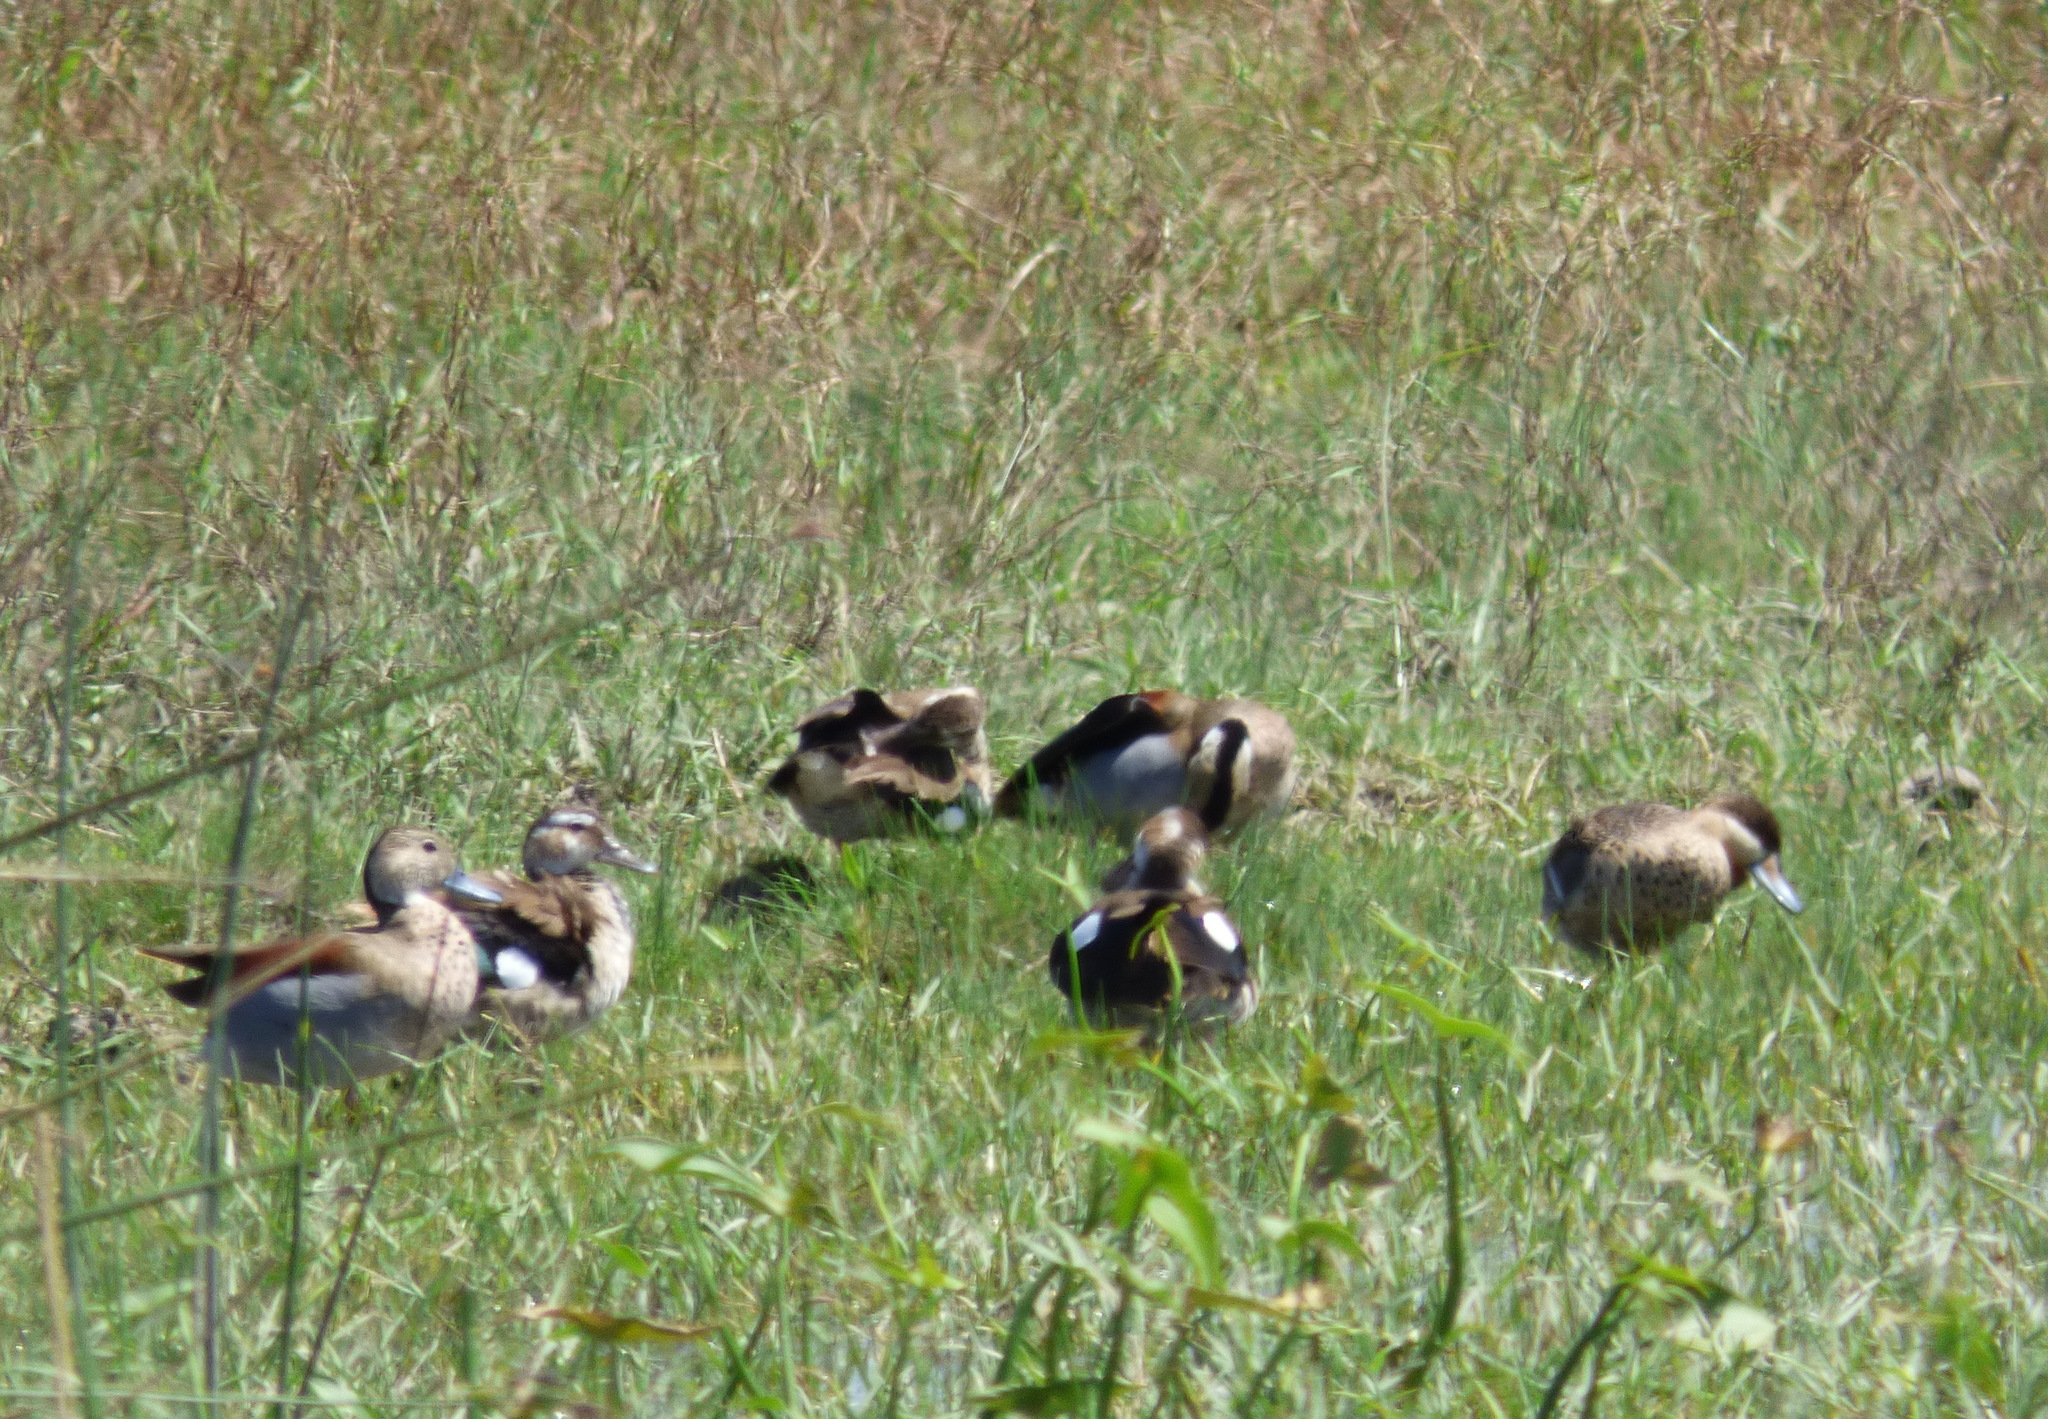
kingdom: Animalia
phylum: Chordata
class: Aves
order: Anseriformes
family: Anatidae
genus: Callonetta
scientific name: Callonetta leucophrys
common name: Ringed teal
